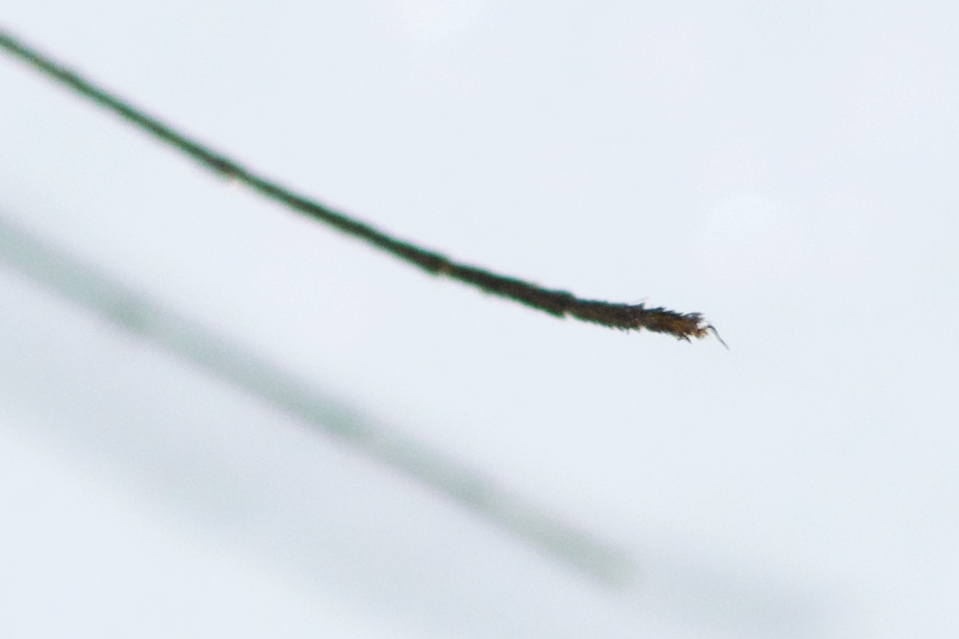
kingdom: Animalia
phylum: Arthropoda
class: Insecta
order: Diptera
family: Culicidae
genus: Culex
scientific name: Culex pipiens
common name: Mosquito
